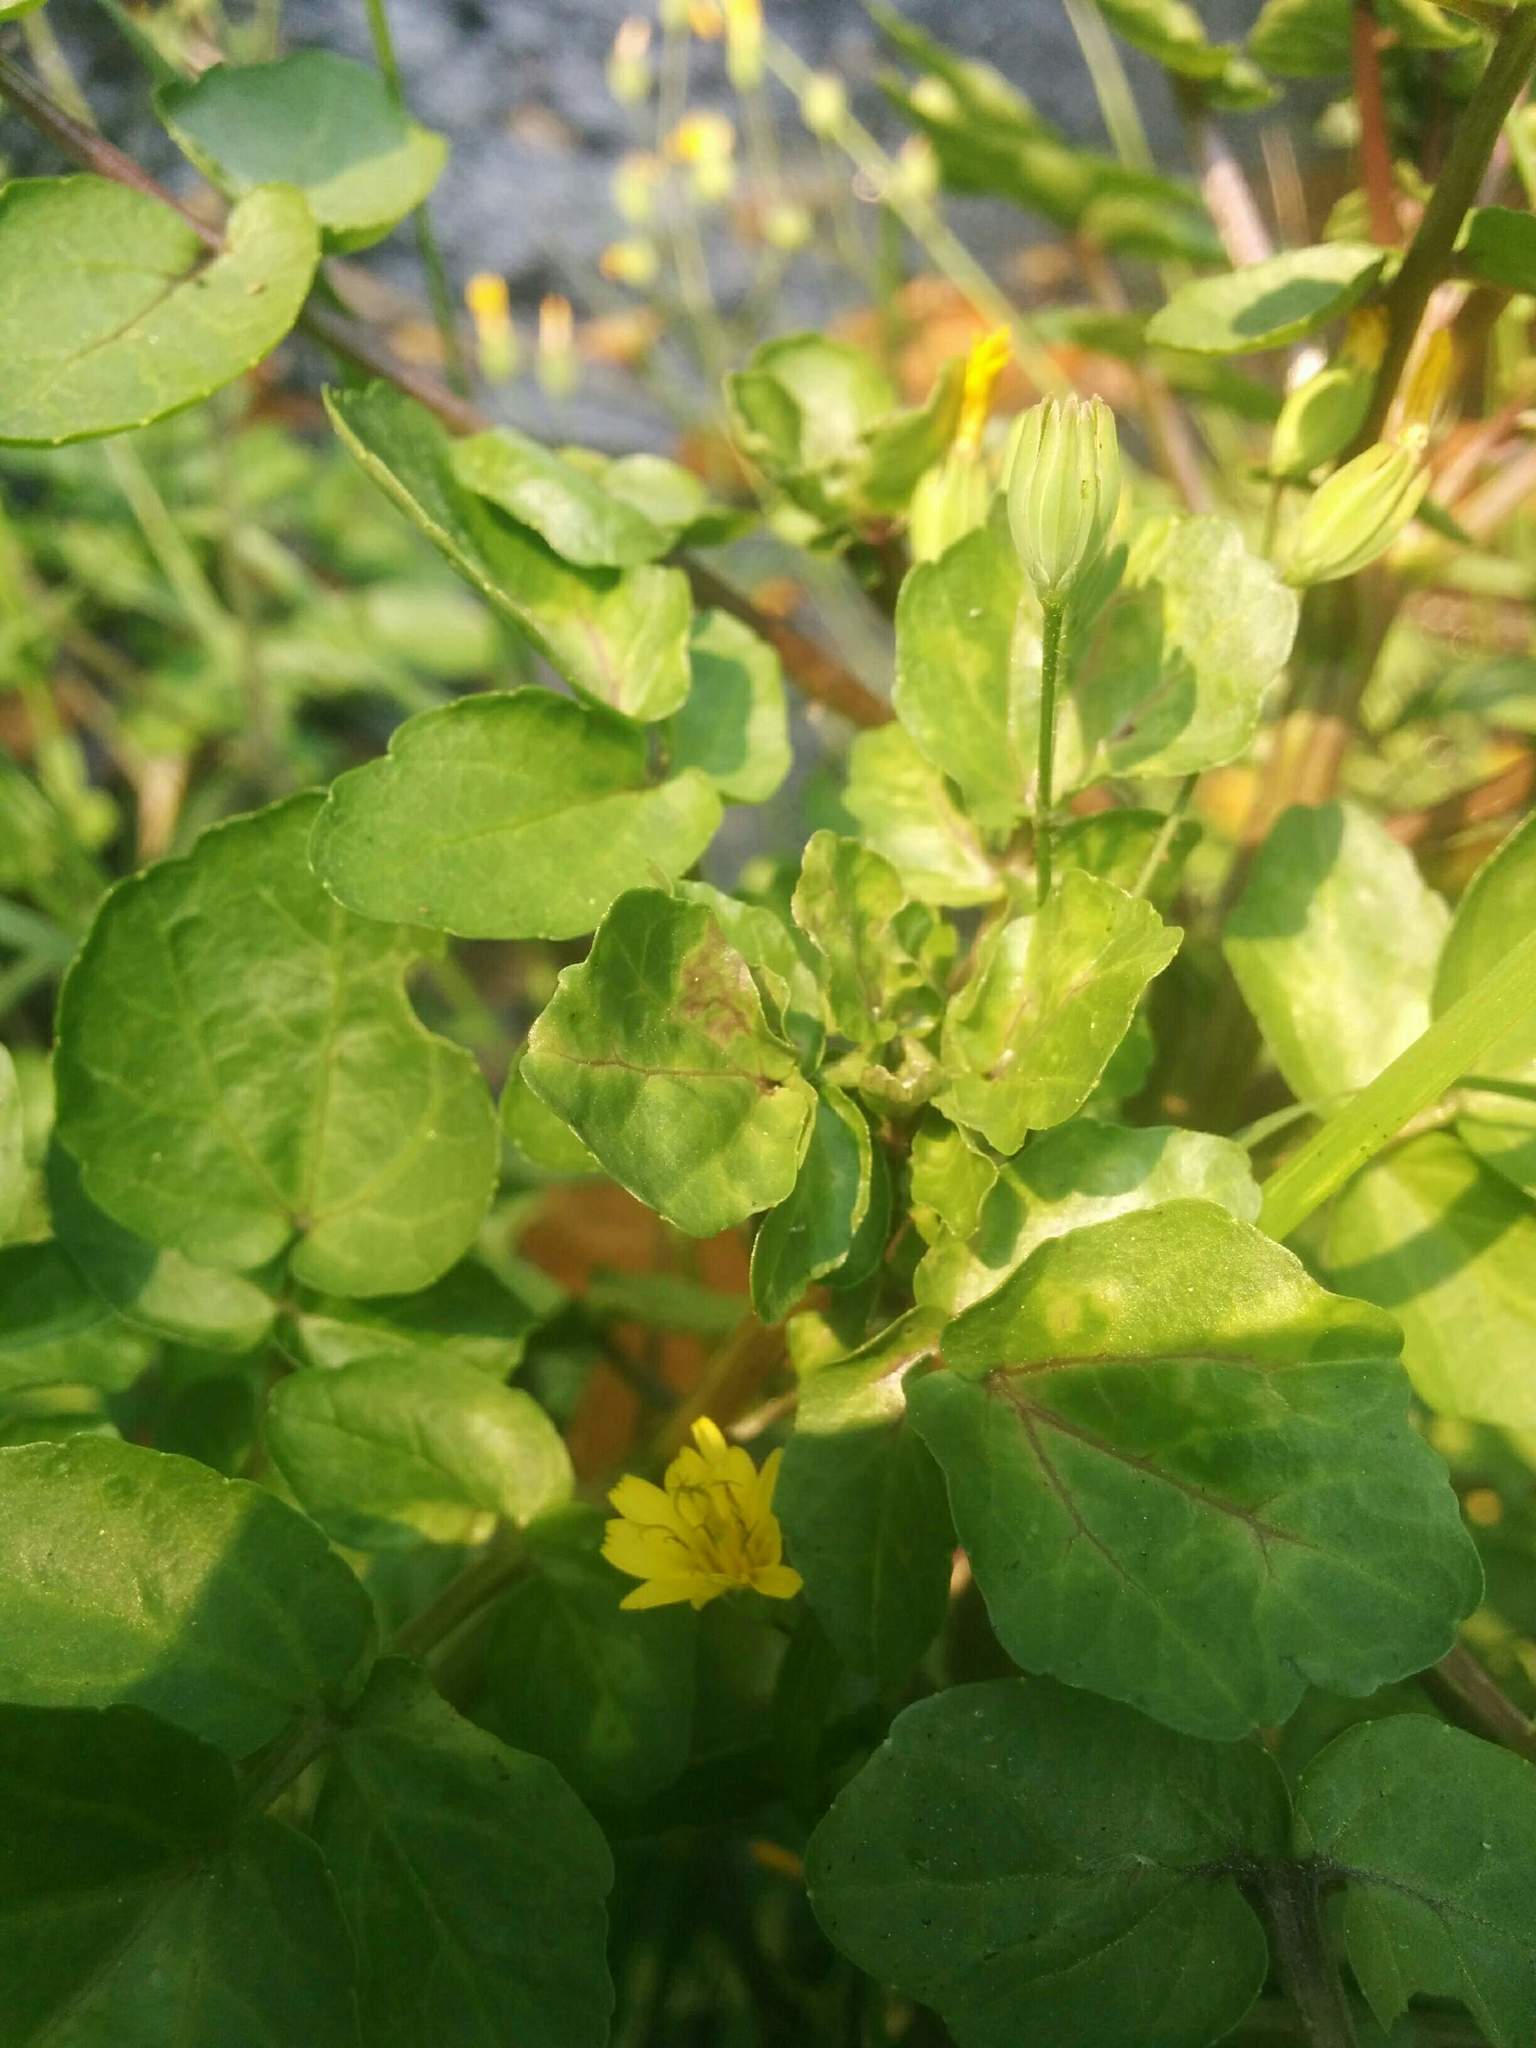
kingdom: Plantae
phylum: Tracheophyta
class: Magnoliopsida
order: Brassicales
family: Brassicaceae
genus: Nasturtium
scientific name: Nasturtium officinale
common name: Watercress
